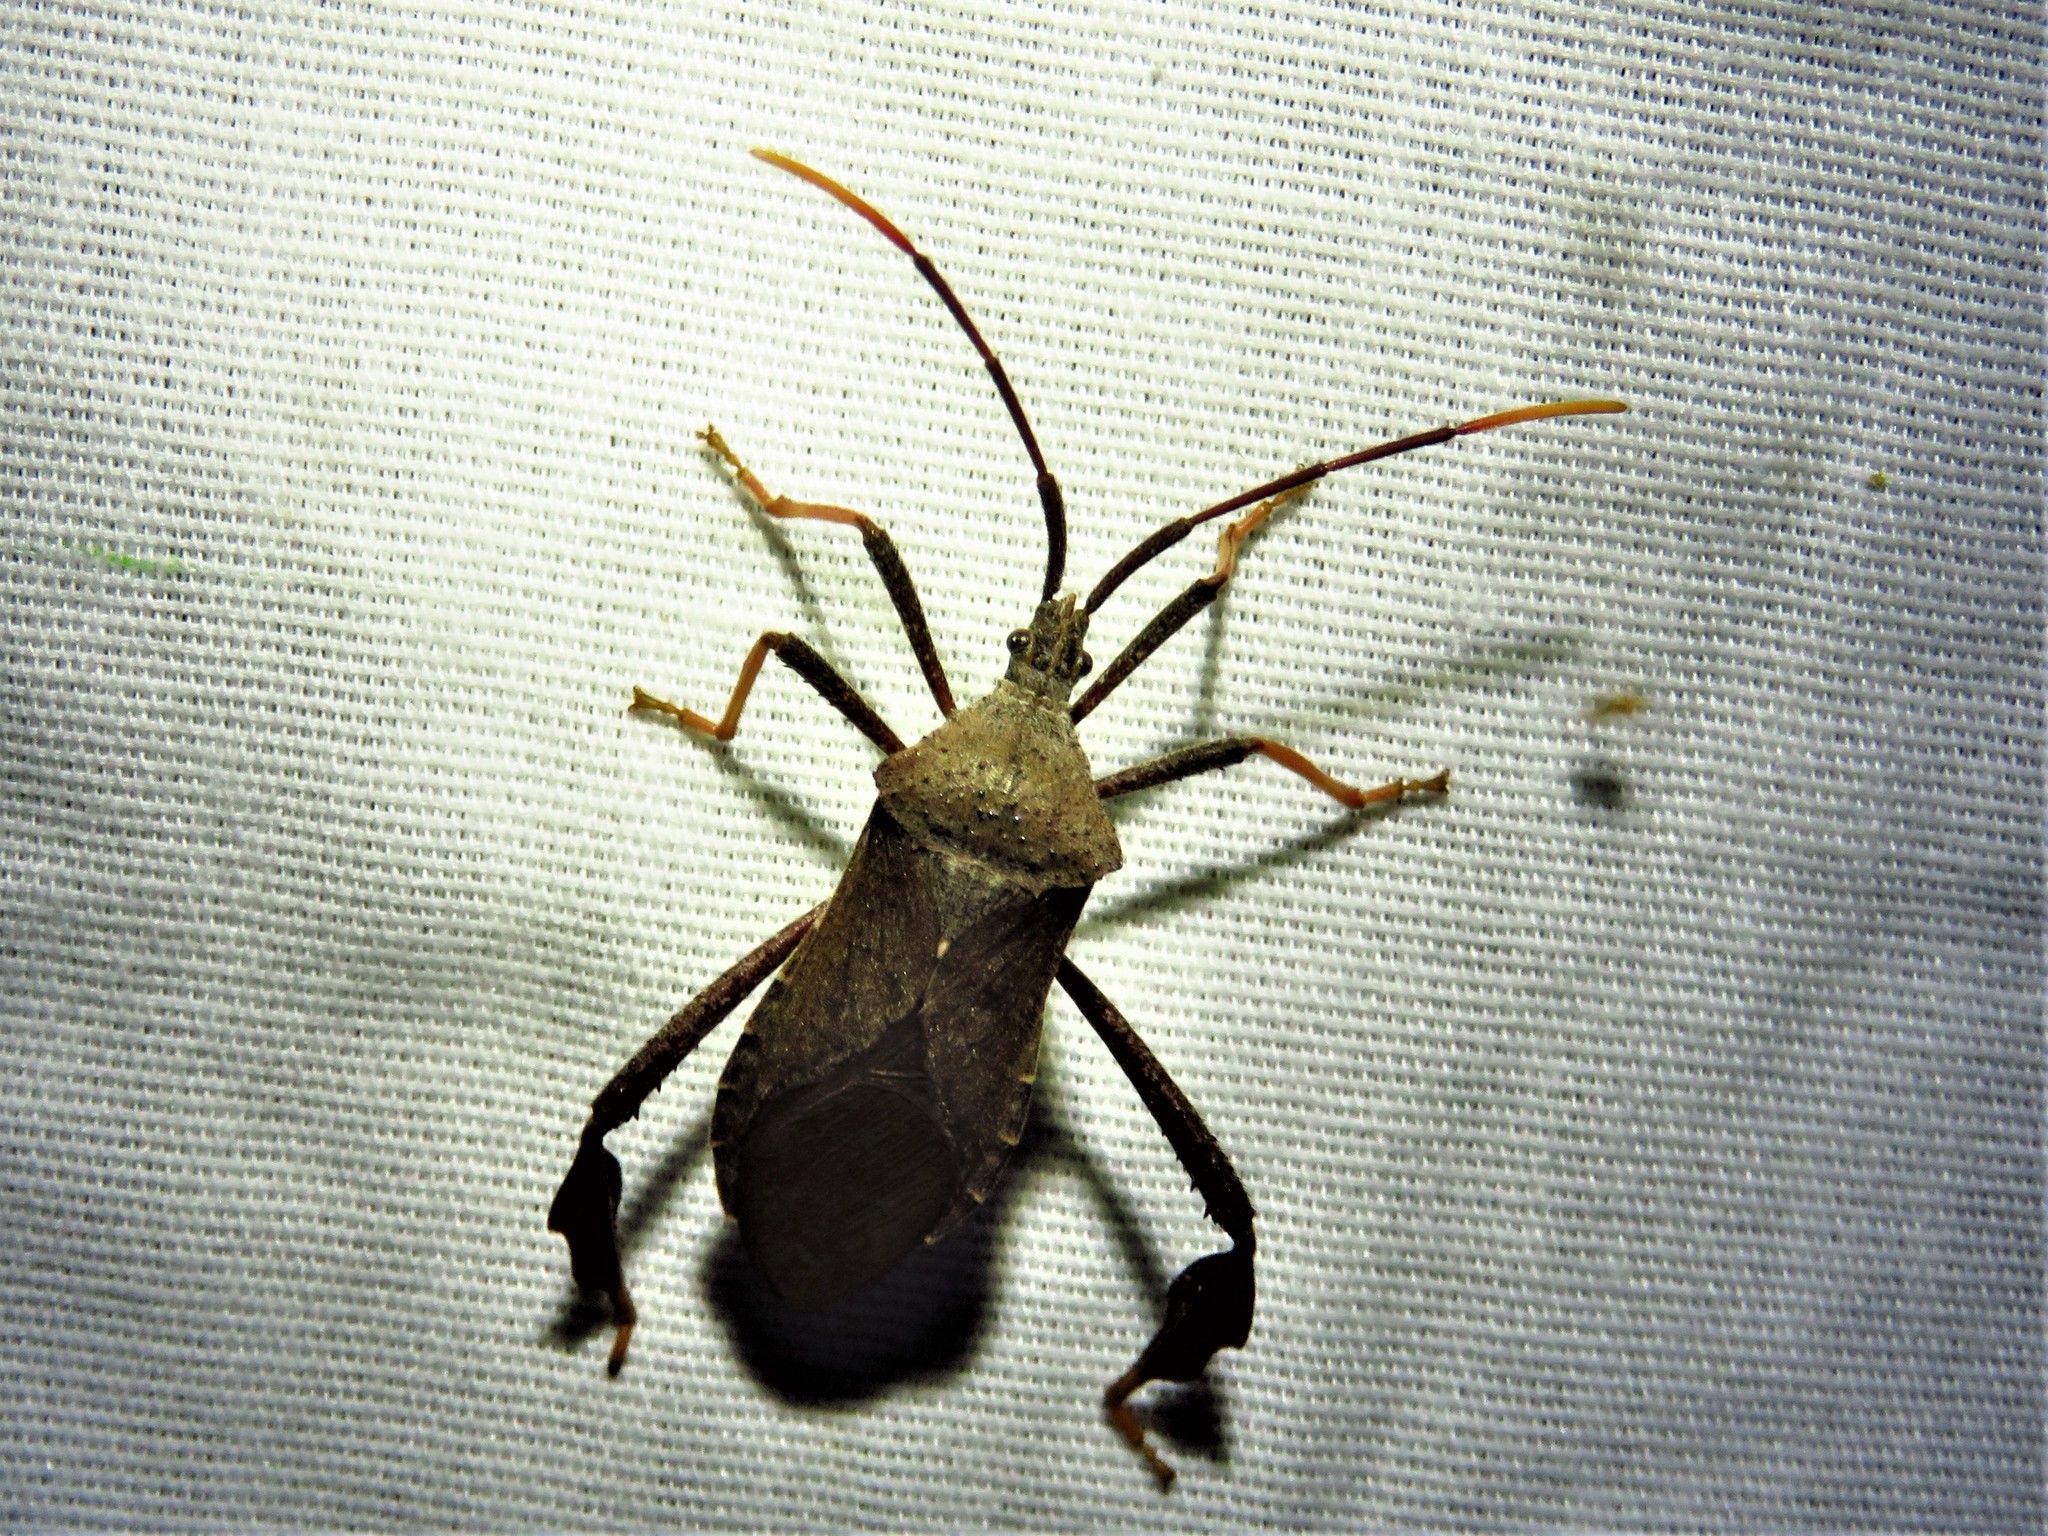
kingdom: Animalia
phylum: Arthropoda
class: Insecta
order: Hemiptera
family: Coreidae
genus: Acanthocephala
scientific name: Acanthocephala terminalis
